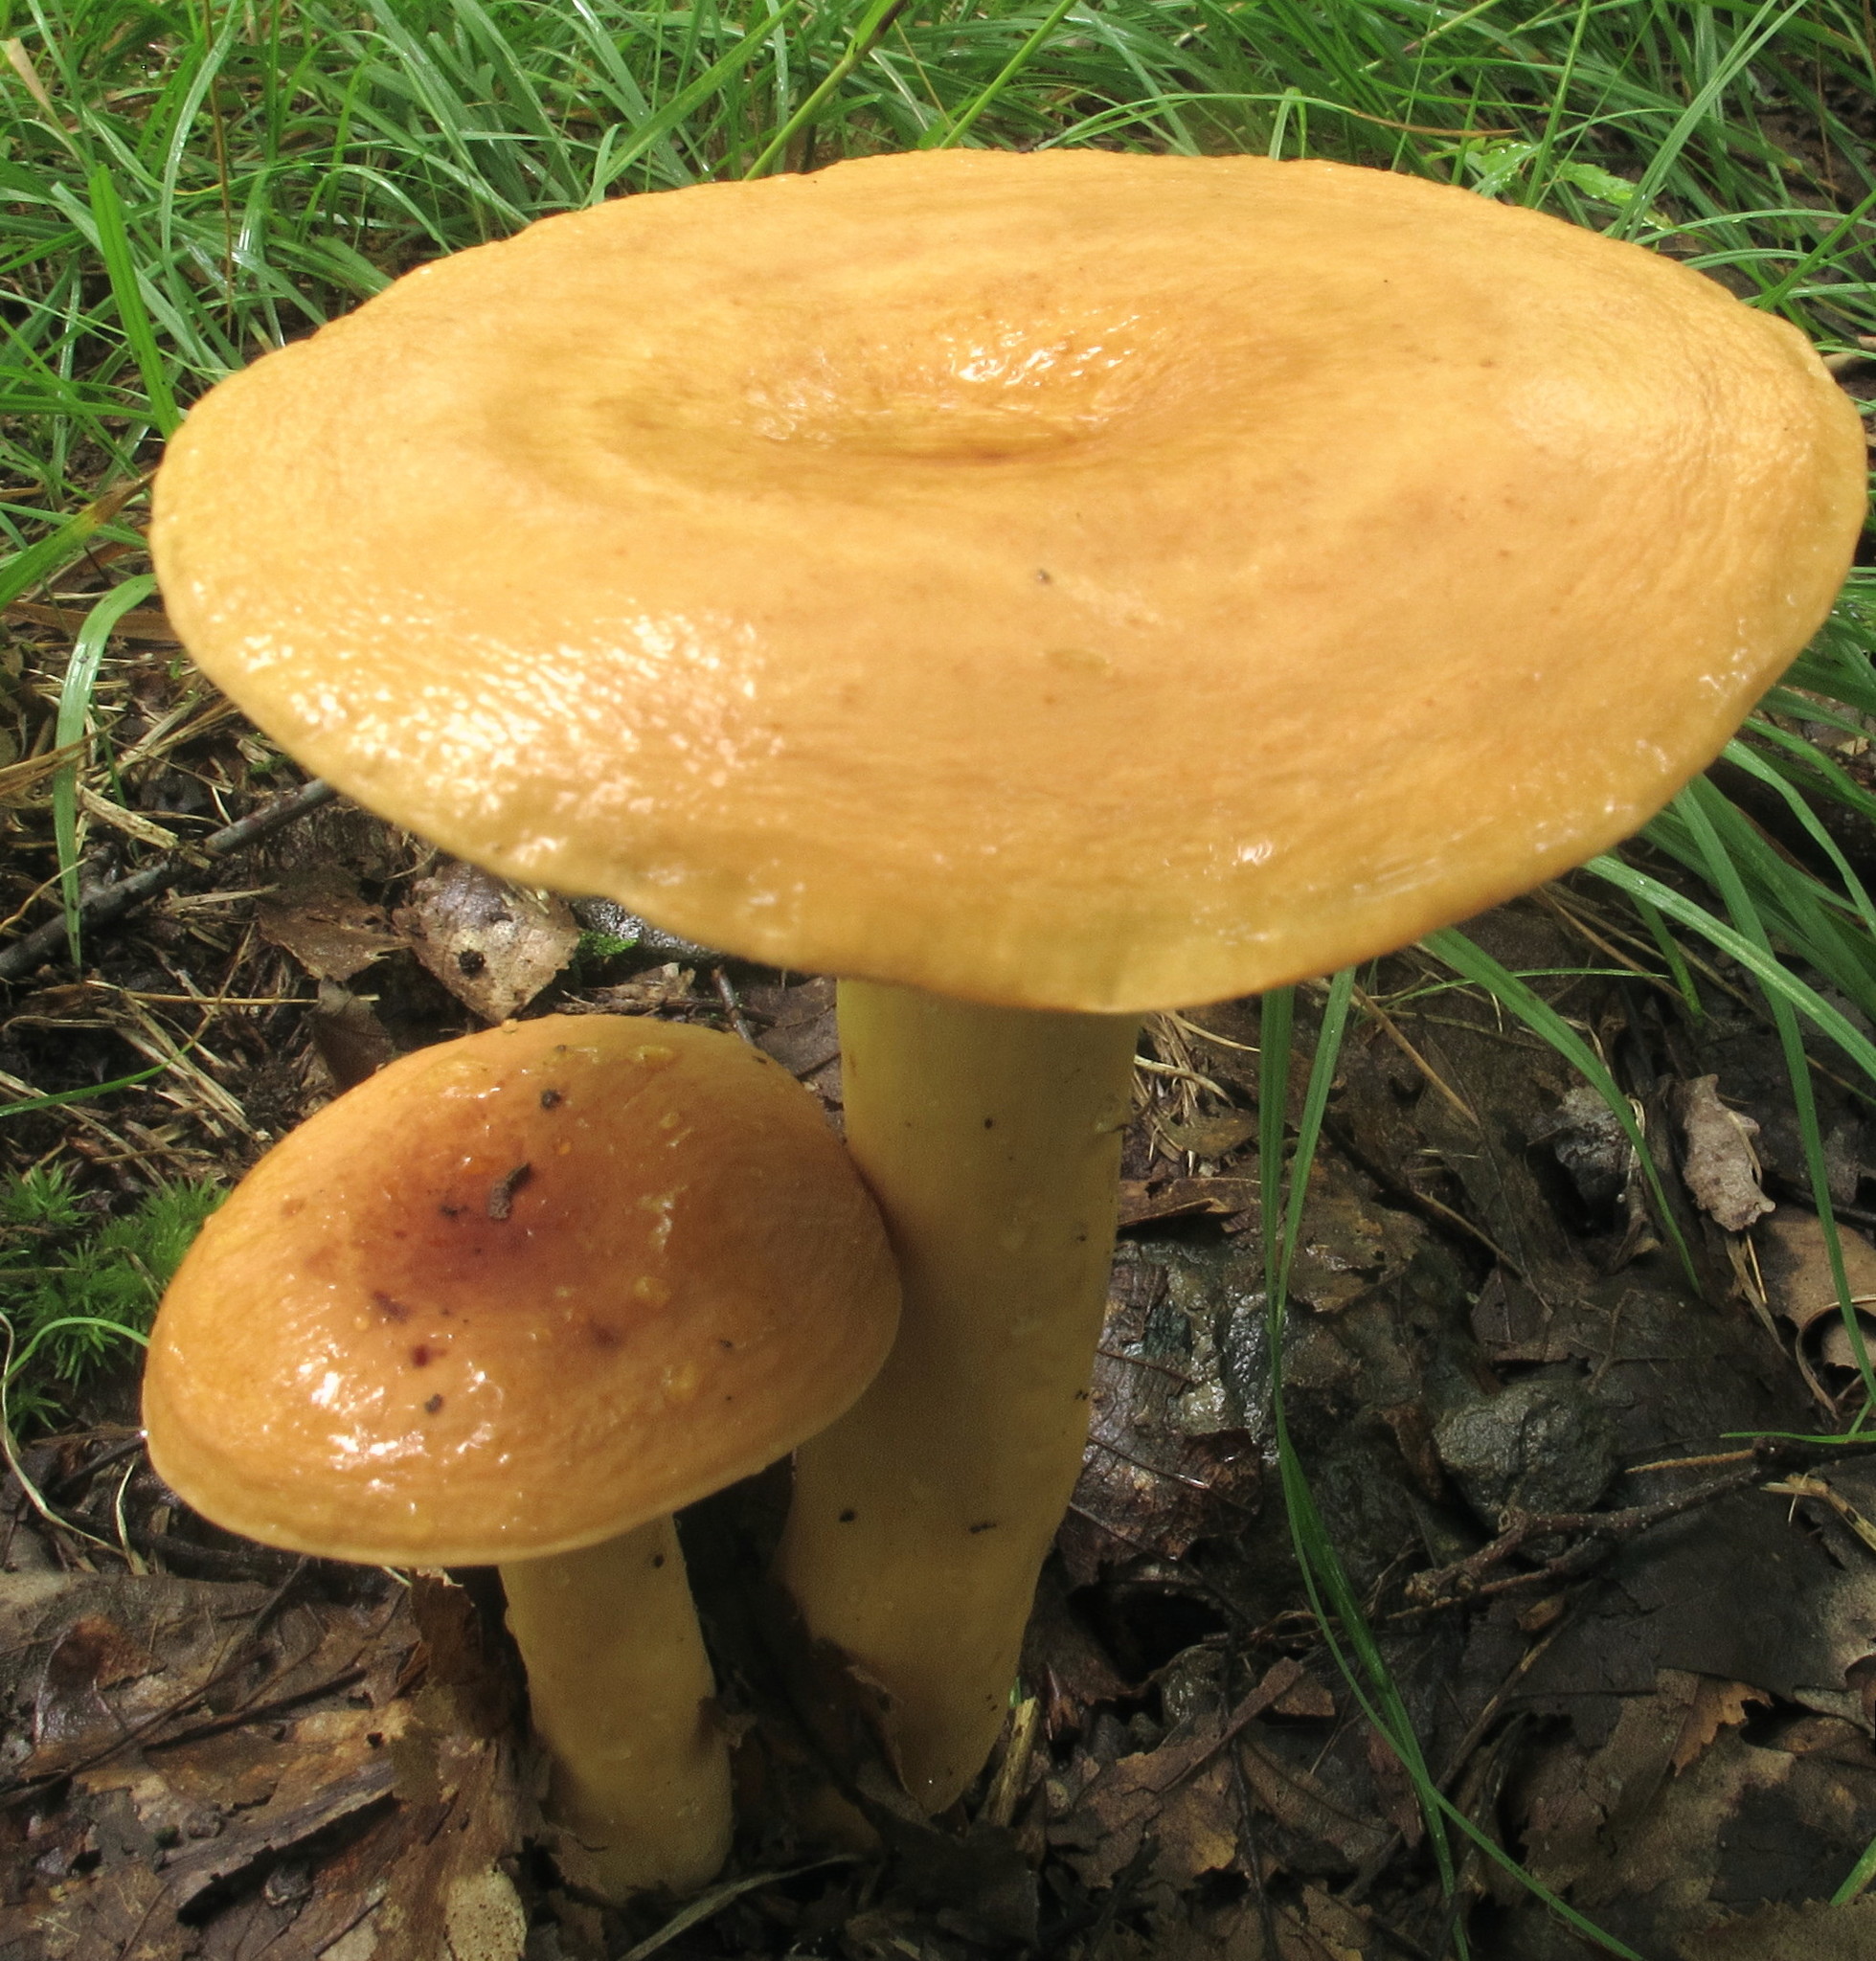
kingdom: Fungi
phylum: Basidiomycota
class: Agaricomycetes
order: Russulales
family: Russulaceae
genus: Lactifluus
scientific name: Lactifluus volemus
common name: Fishy milkcap
